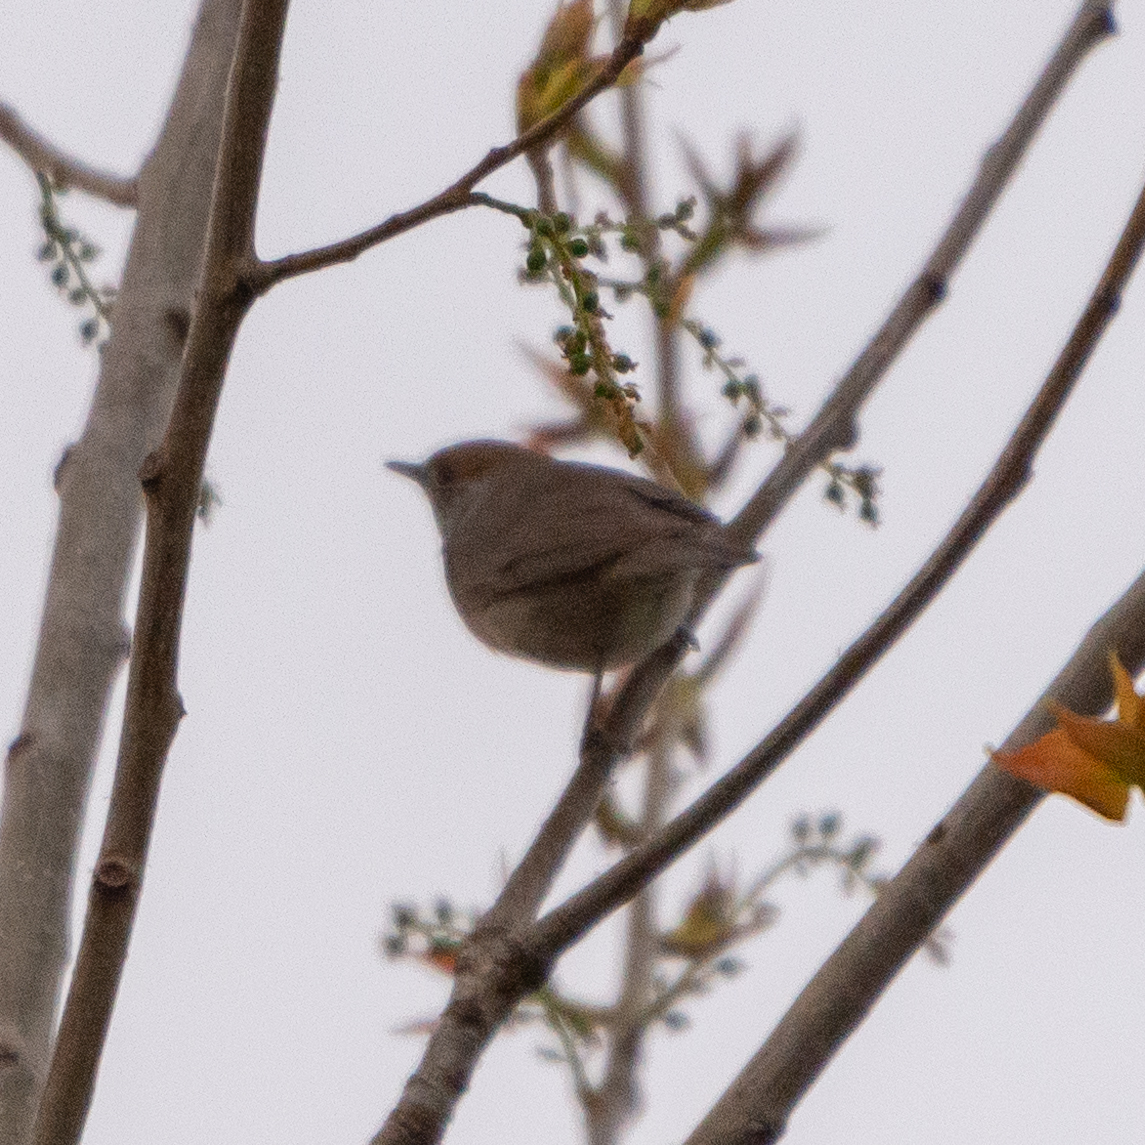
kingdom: Animalia
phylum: Chordata
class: Aves
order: Passeriformes
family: Sylviidae
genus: Sylvia
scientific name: Sylvia atricapilla
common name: Eurasian blackcap
